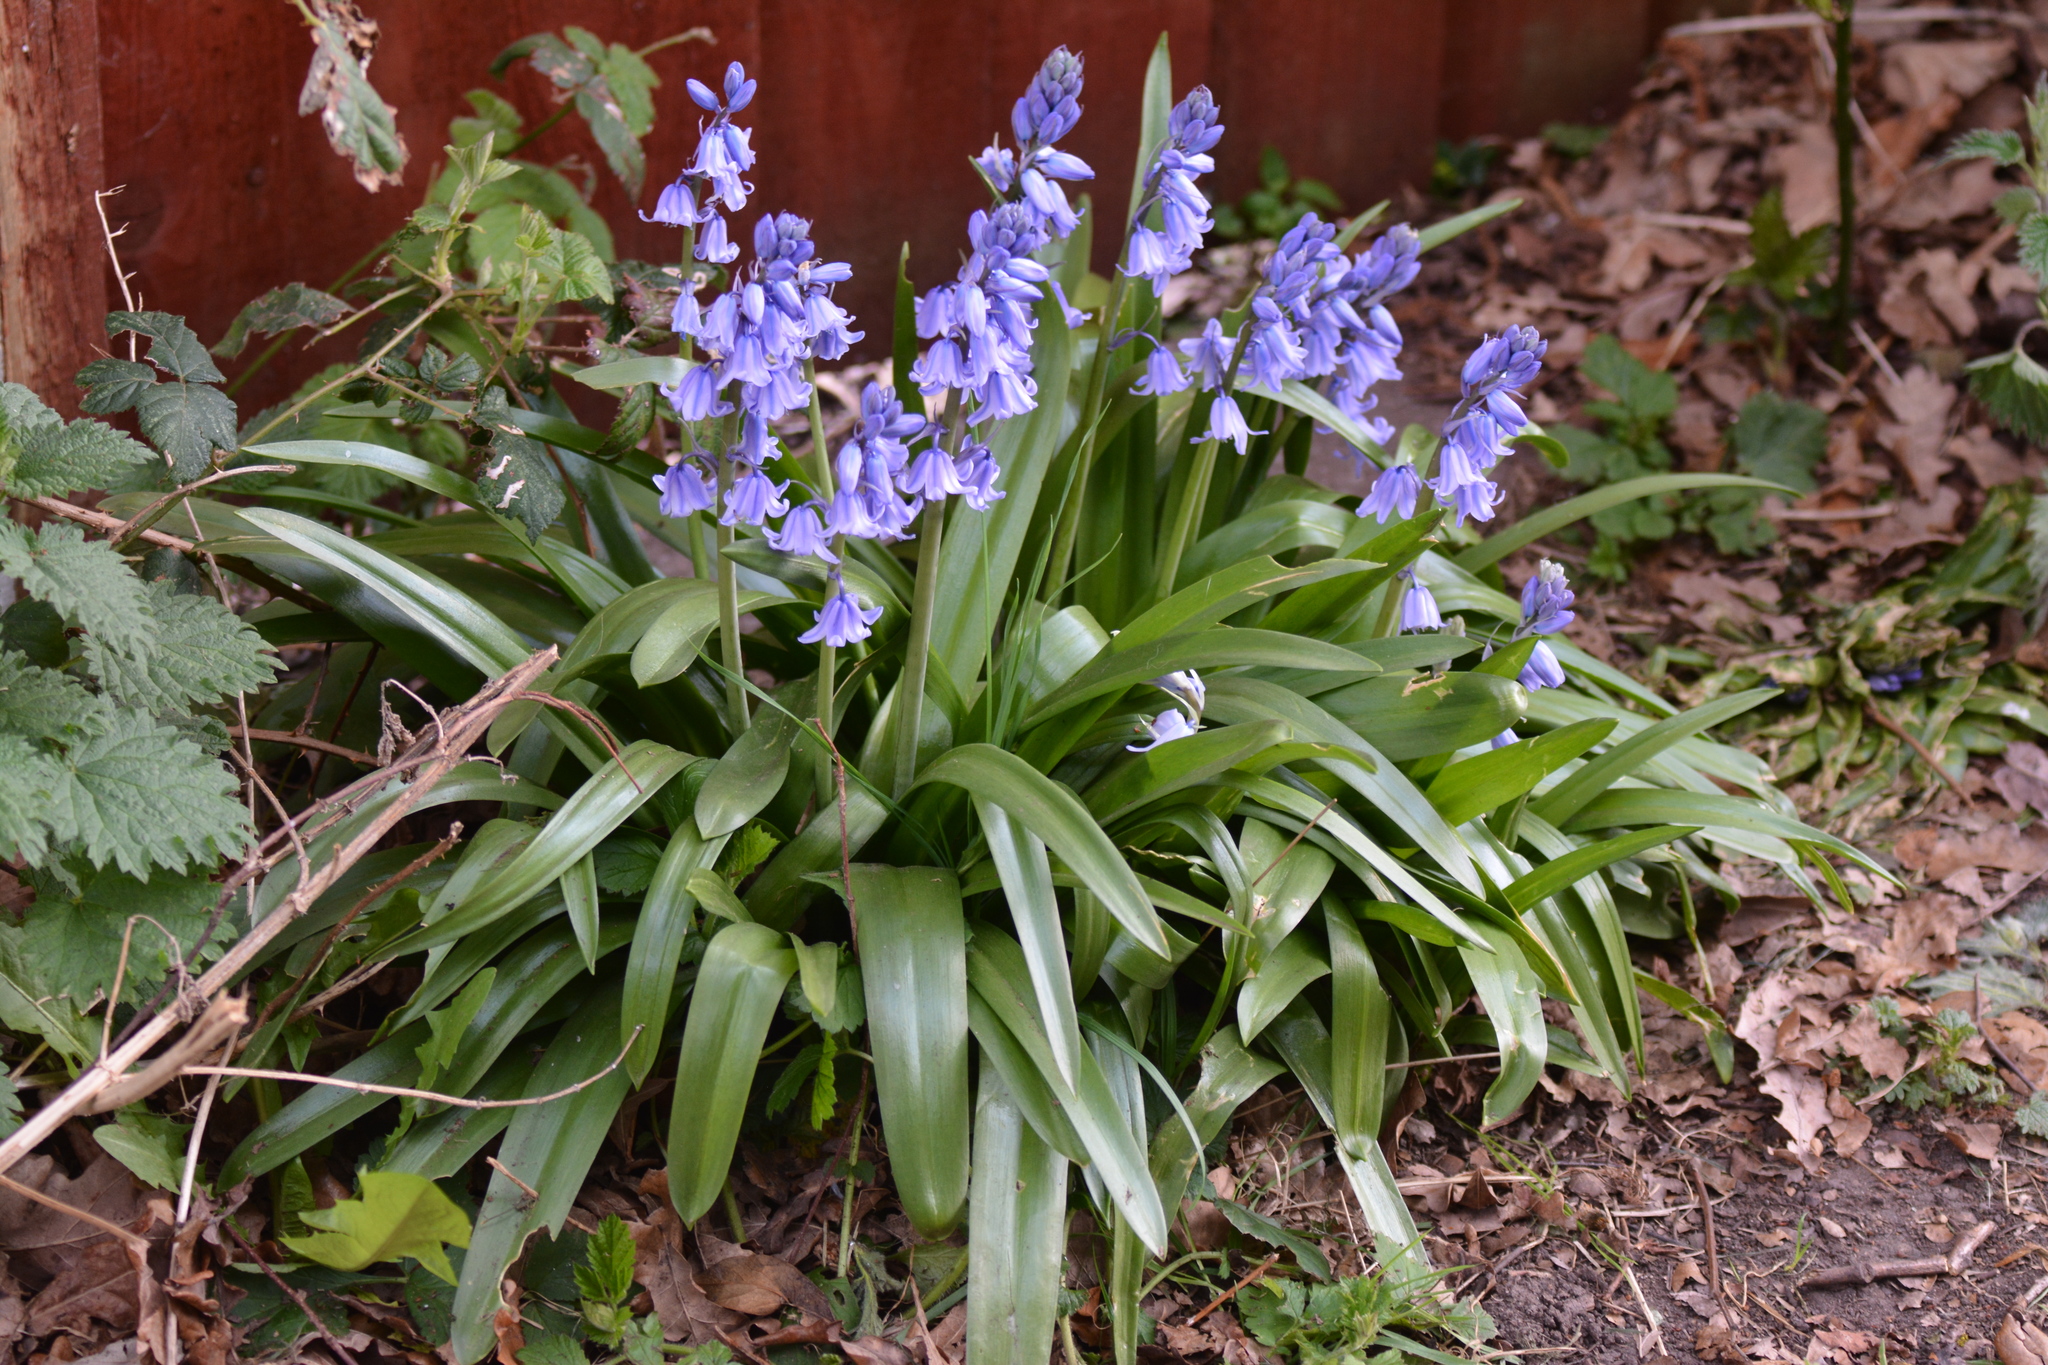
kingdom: Plantae
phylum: Tracheophyta
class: Liliopsida
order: Asparagales
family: Asparagaceae
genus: Hyacinthoides
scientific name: Hyacinthoides hispanica
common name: Spanish bluebell
